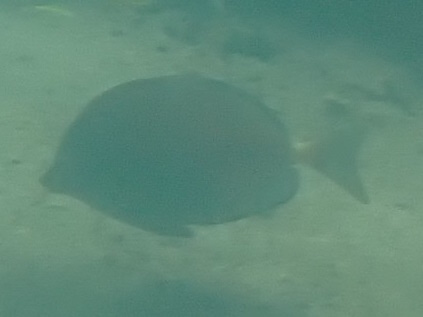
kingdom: Animalia
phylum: Chordata
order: Perciformes
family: Acanthuridae
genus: Prionurus
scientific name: Prionurus microlepidotus
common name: Sixplate sawtail
